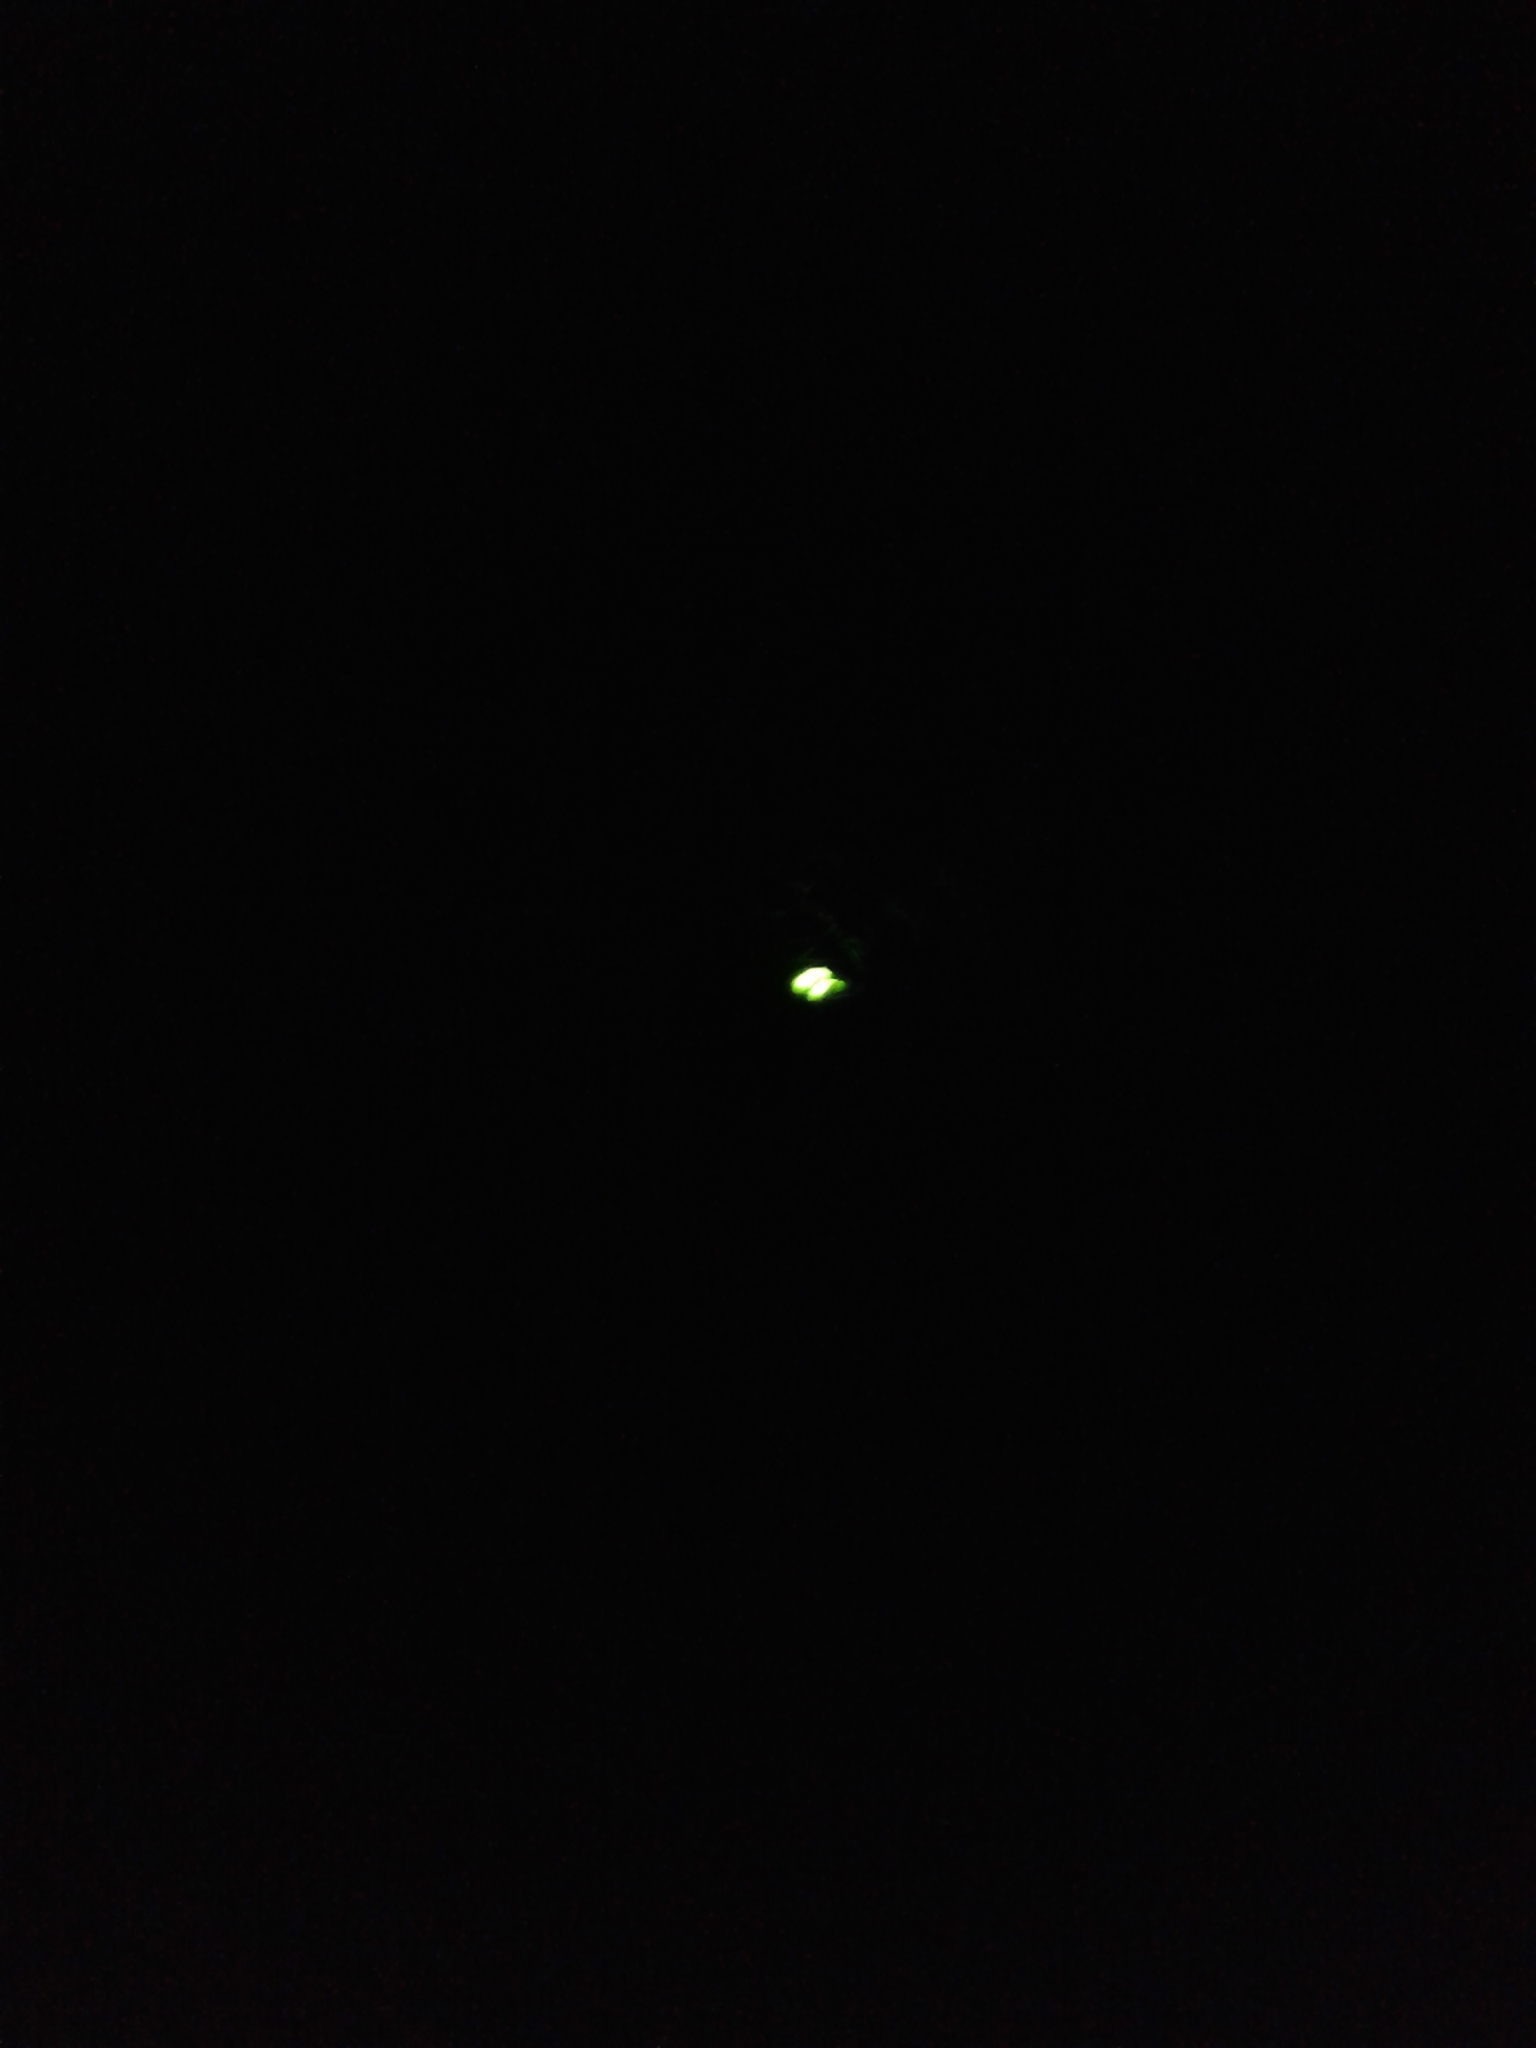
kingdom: Animalia
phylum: Arthropoda
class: Insecta
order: Coleoptera
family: Lampyridae
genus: Lamprohiza
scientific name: Lamprohiza splendidula
